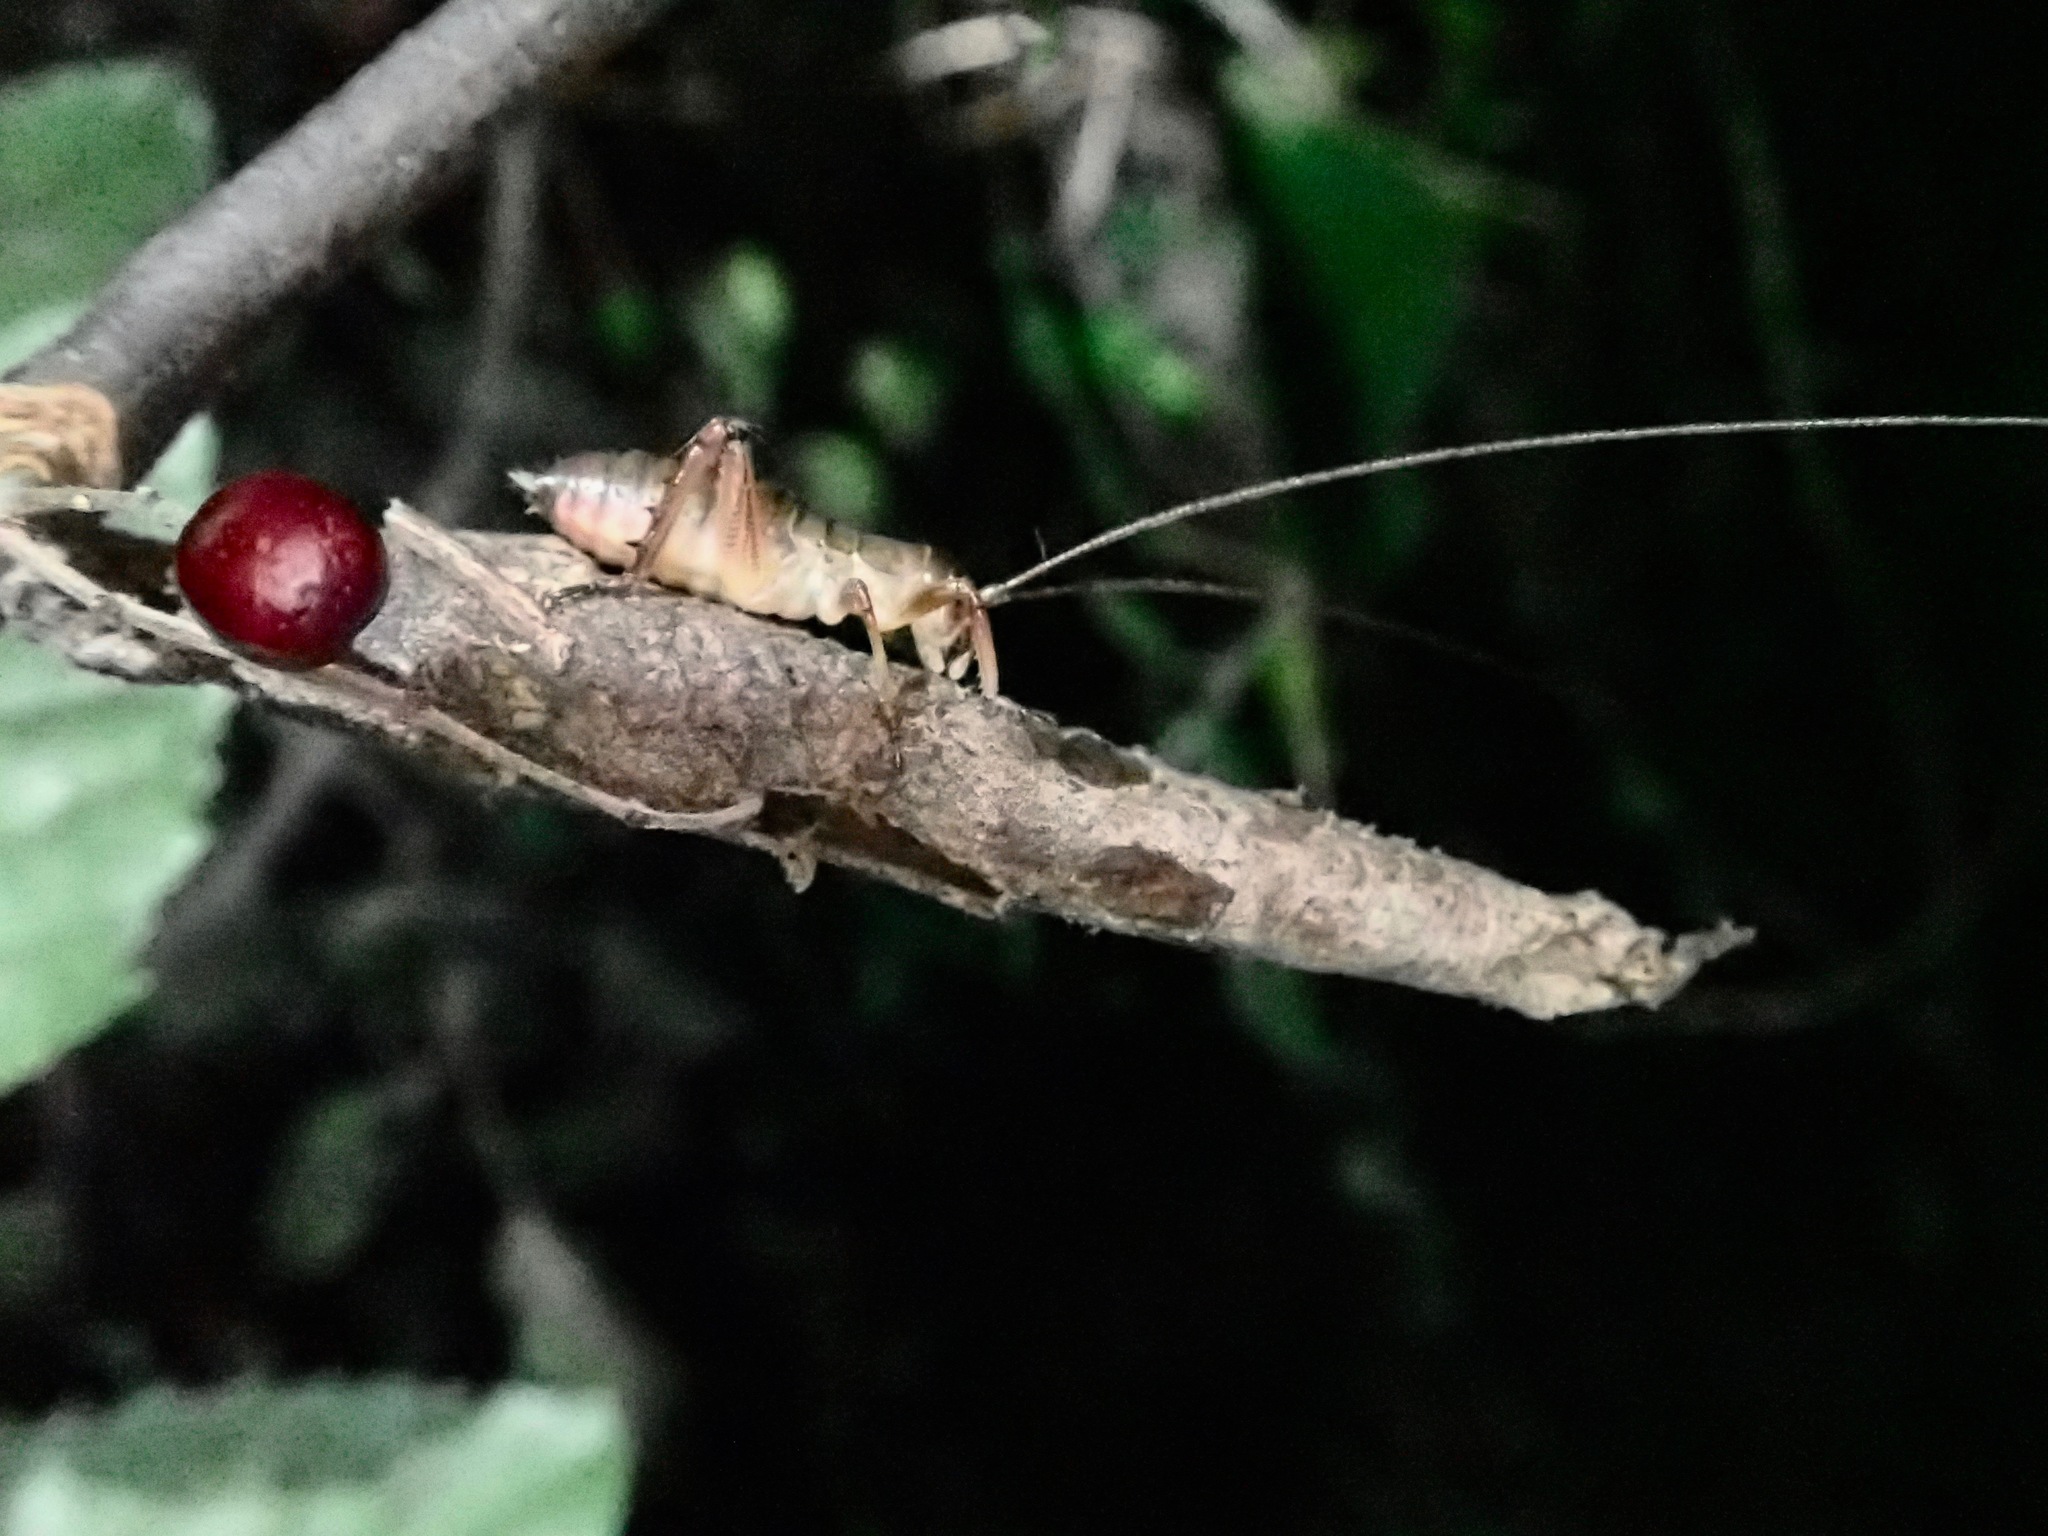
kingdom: Animalia
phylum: Arthropoda
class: Insecta
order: Orthoptera
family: Anostostomatidae
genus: Hemideina
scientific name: Hemideina thoracica
